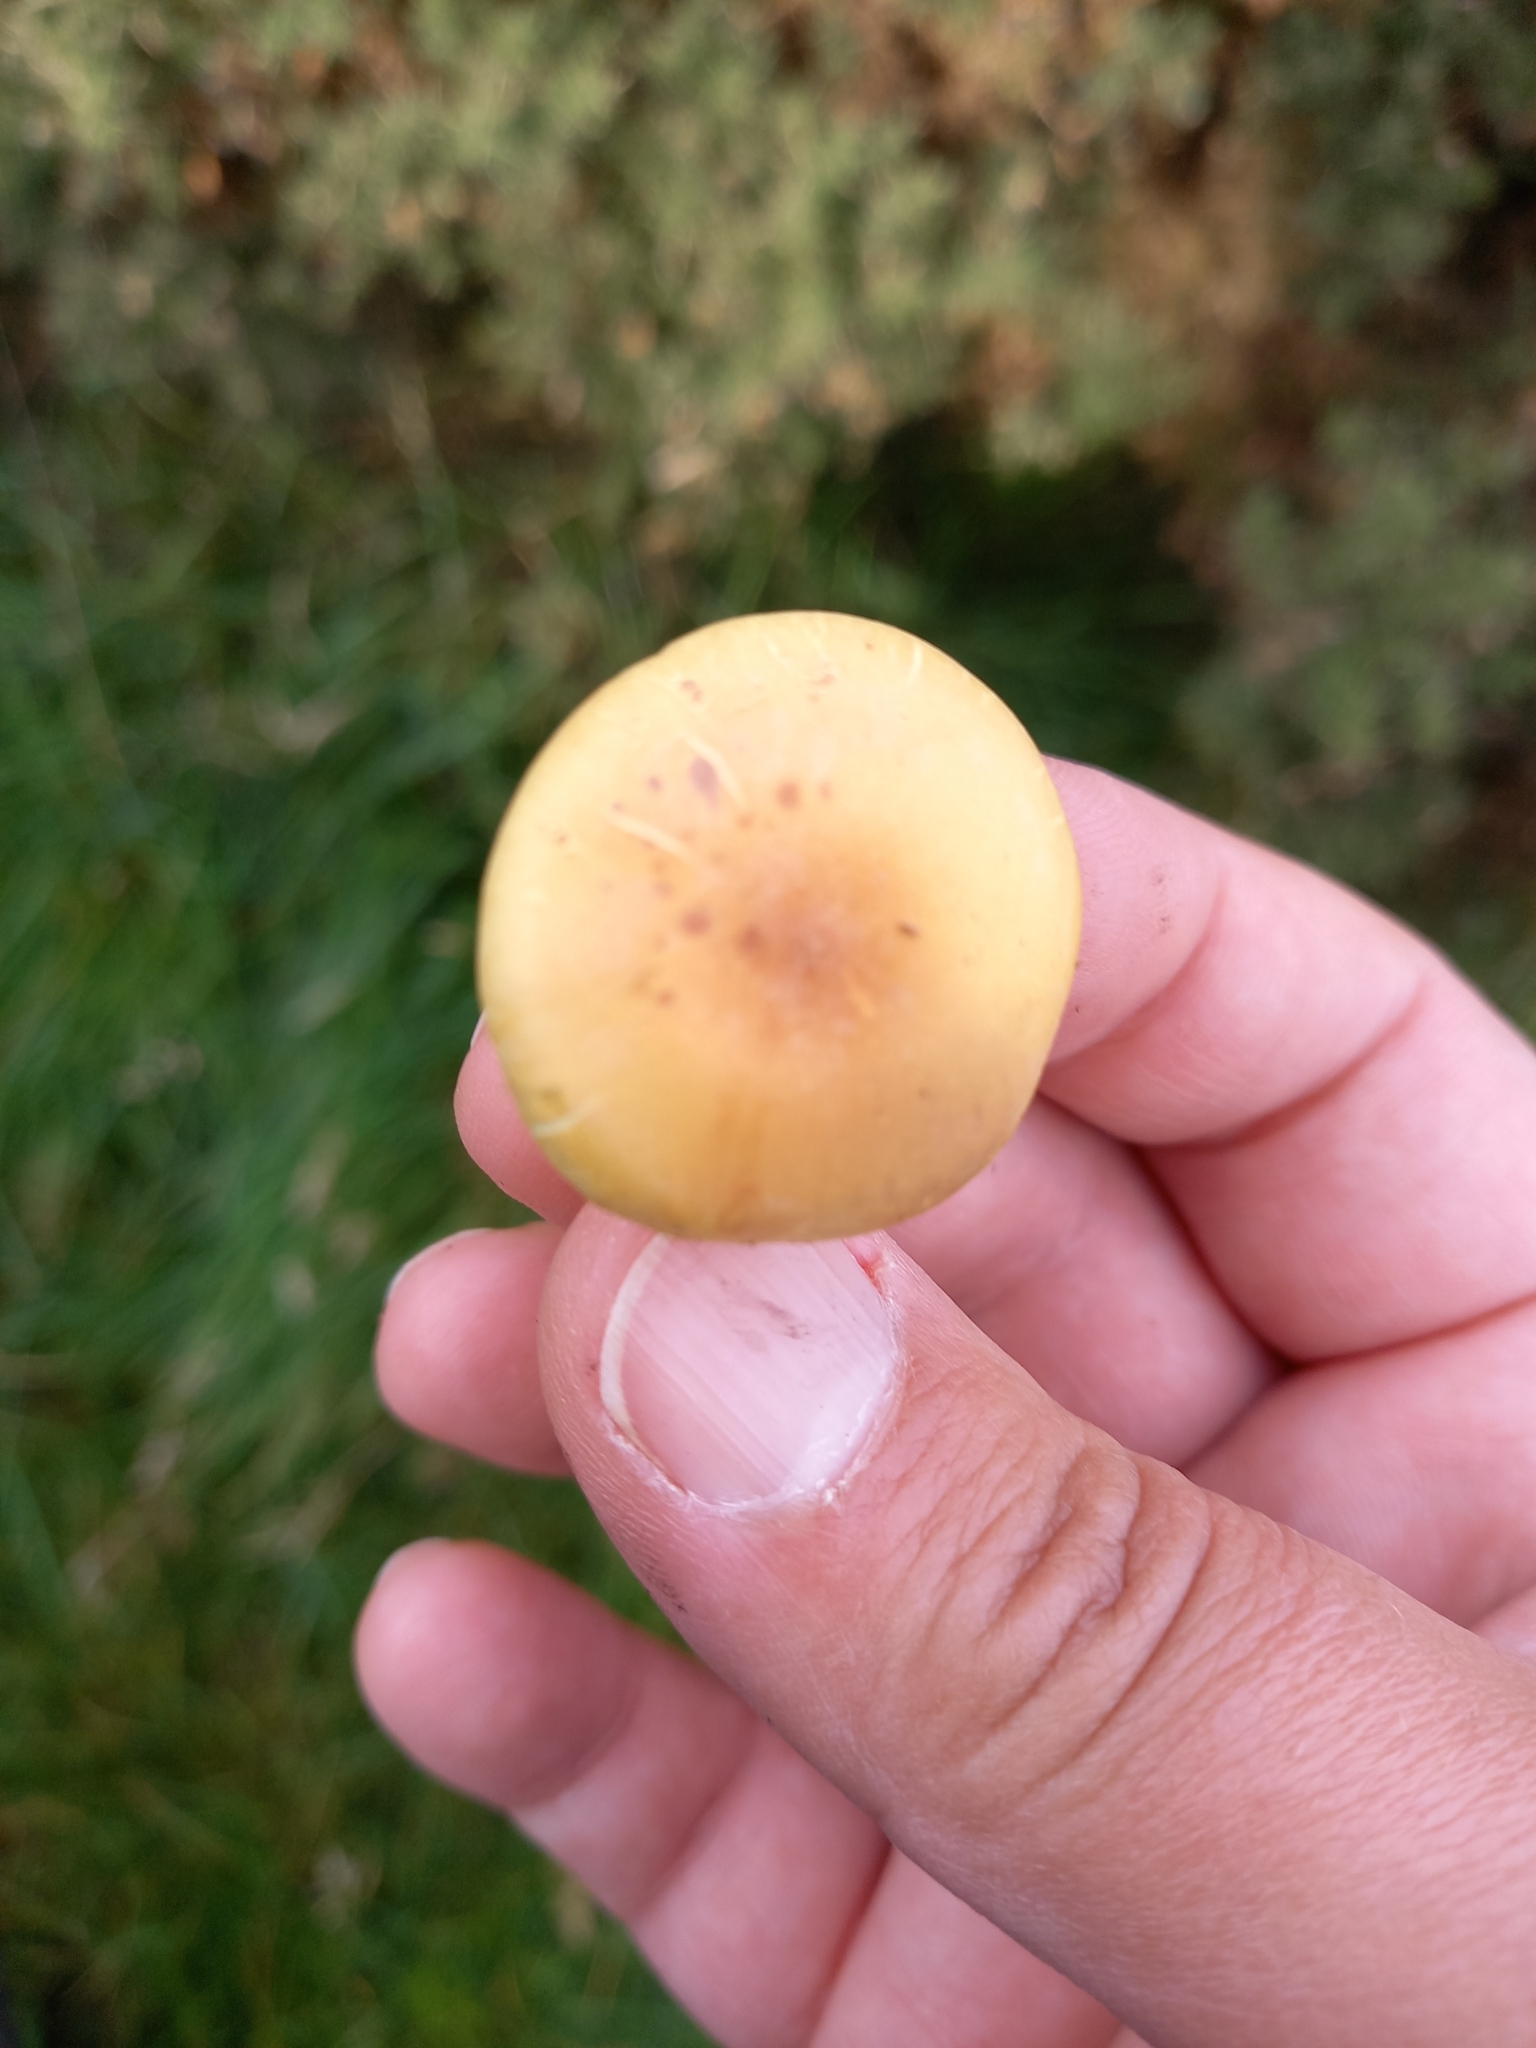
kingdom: Fungi
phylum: Basidiomycota
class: Agaricomycetes
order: Agaricales
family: Strophariaceae
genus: Hypholoma
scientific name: Hypholoma fasciculare
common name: Sulphur tuft
